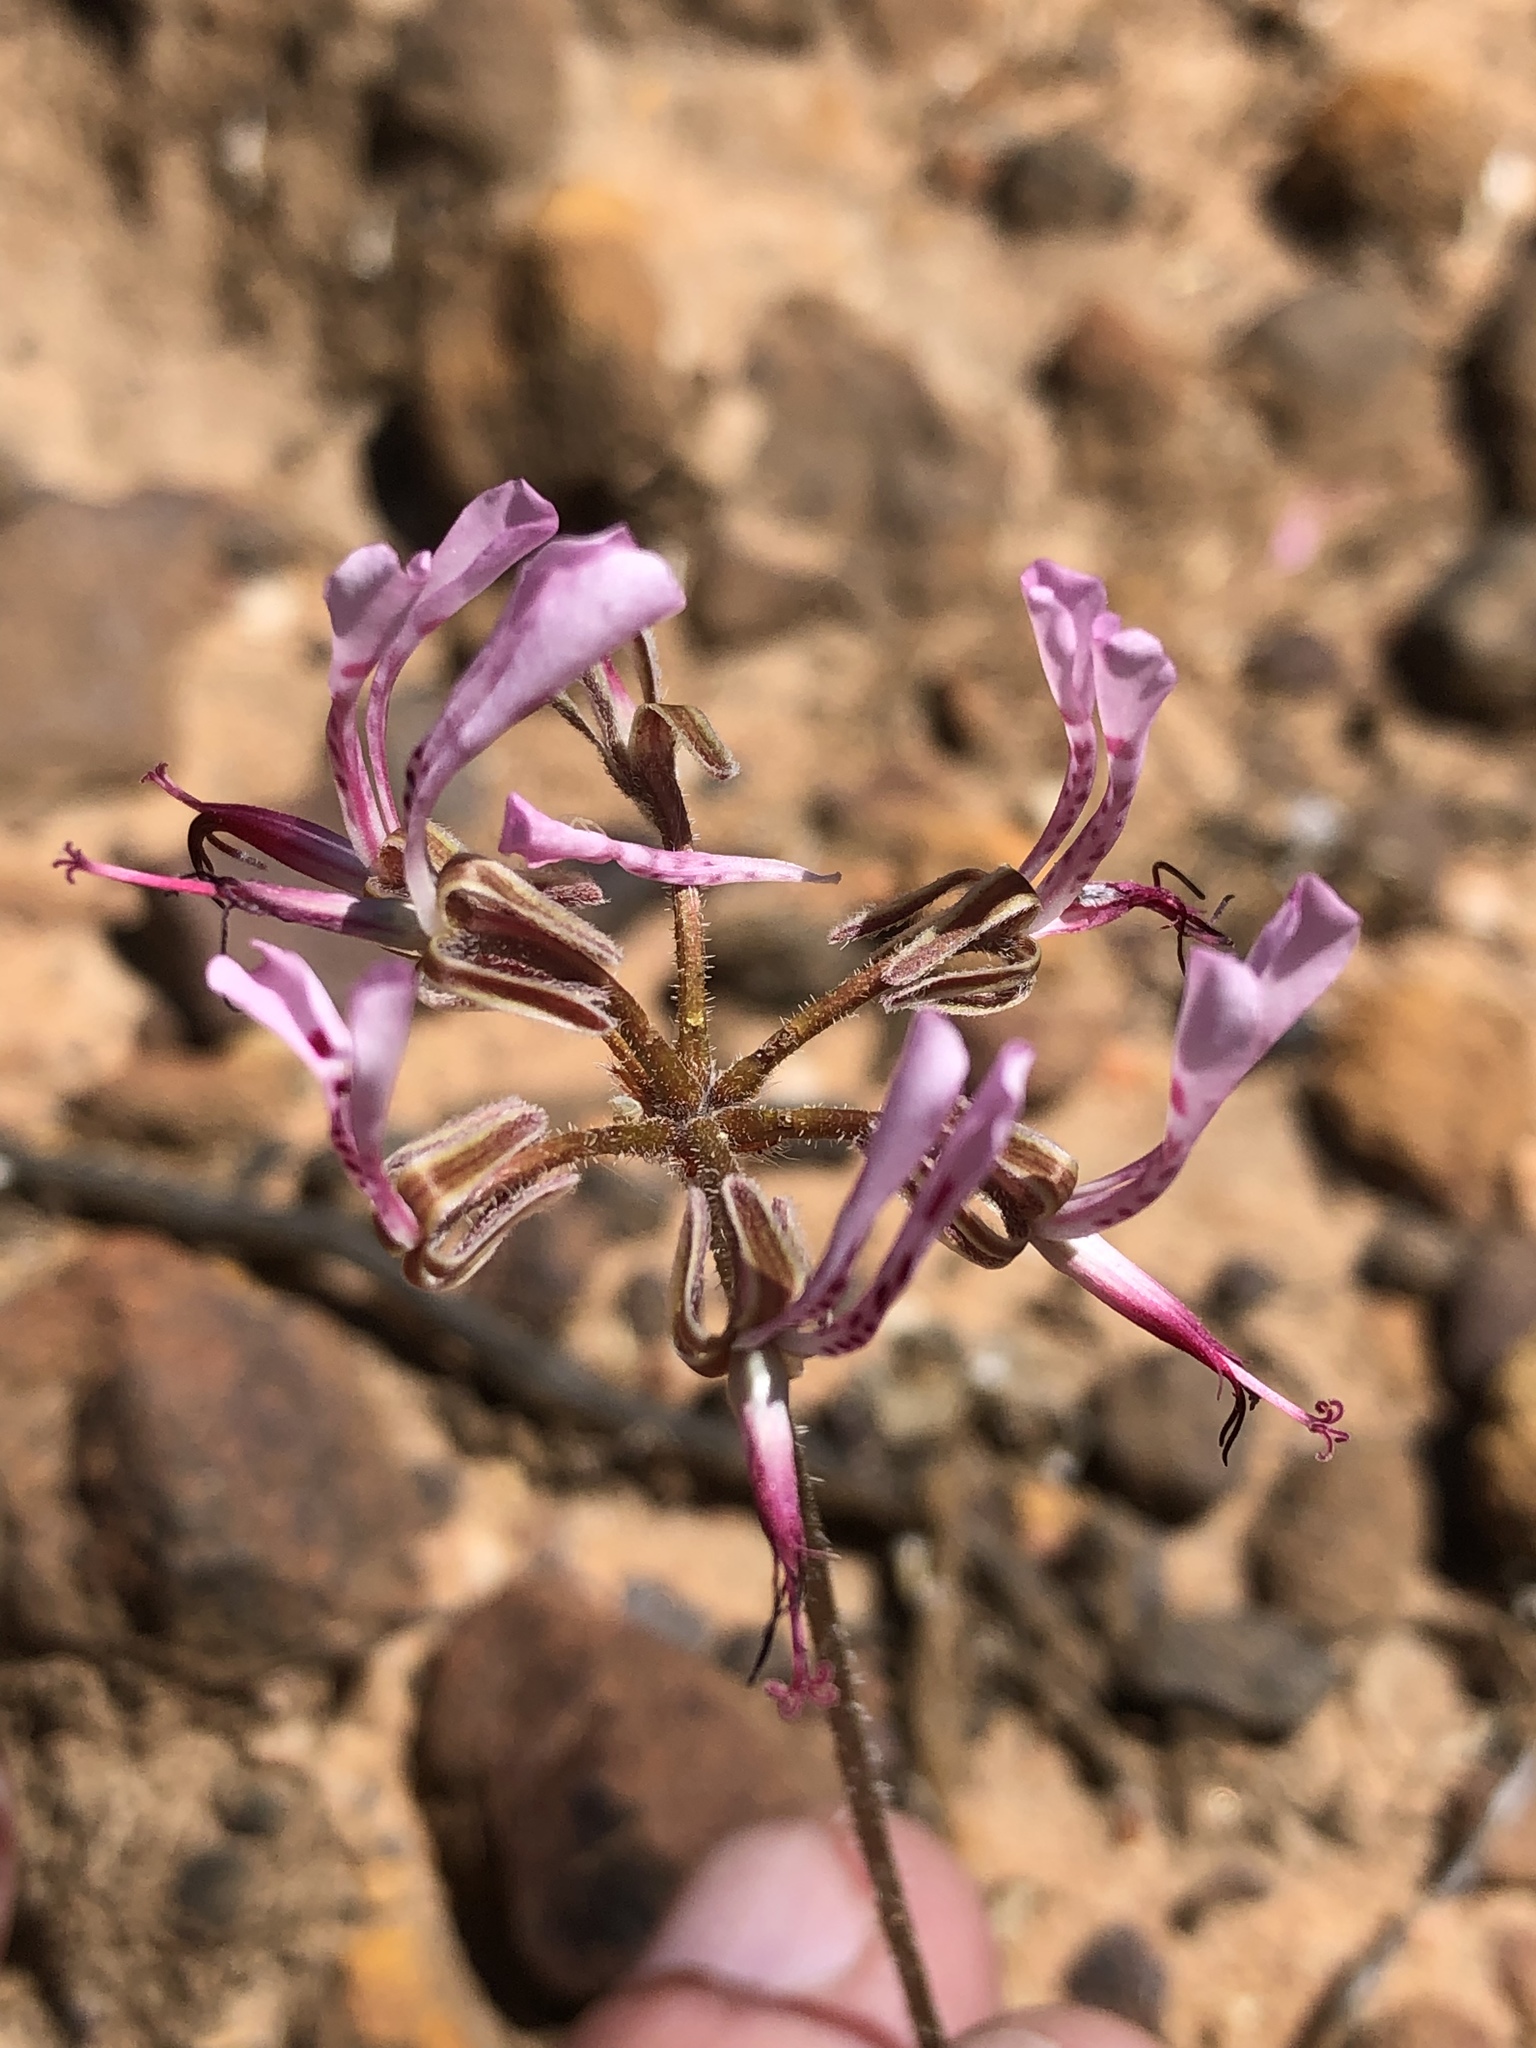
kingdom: Plantae
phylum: Tracheophyta
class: Magnoliopsida
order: Geraniales
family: Geraniaceae
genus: Pelargonium
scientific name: Pelargonium ternifolium
